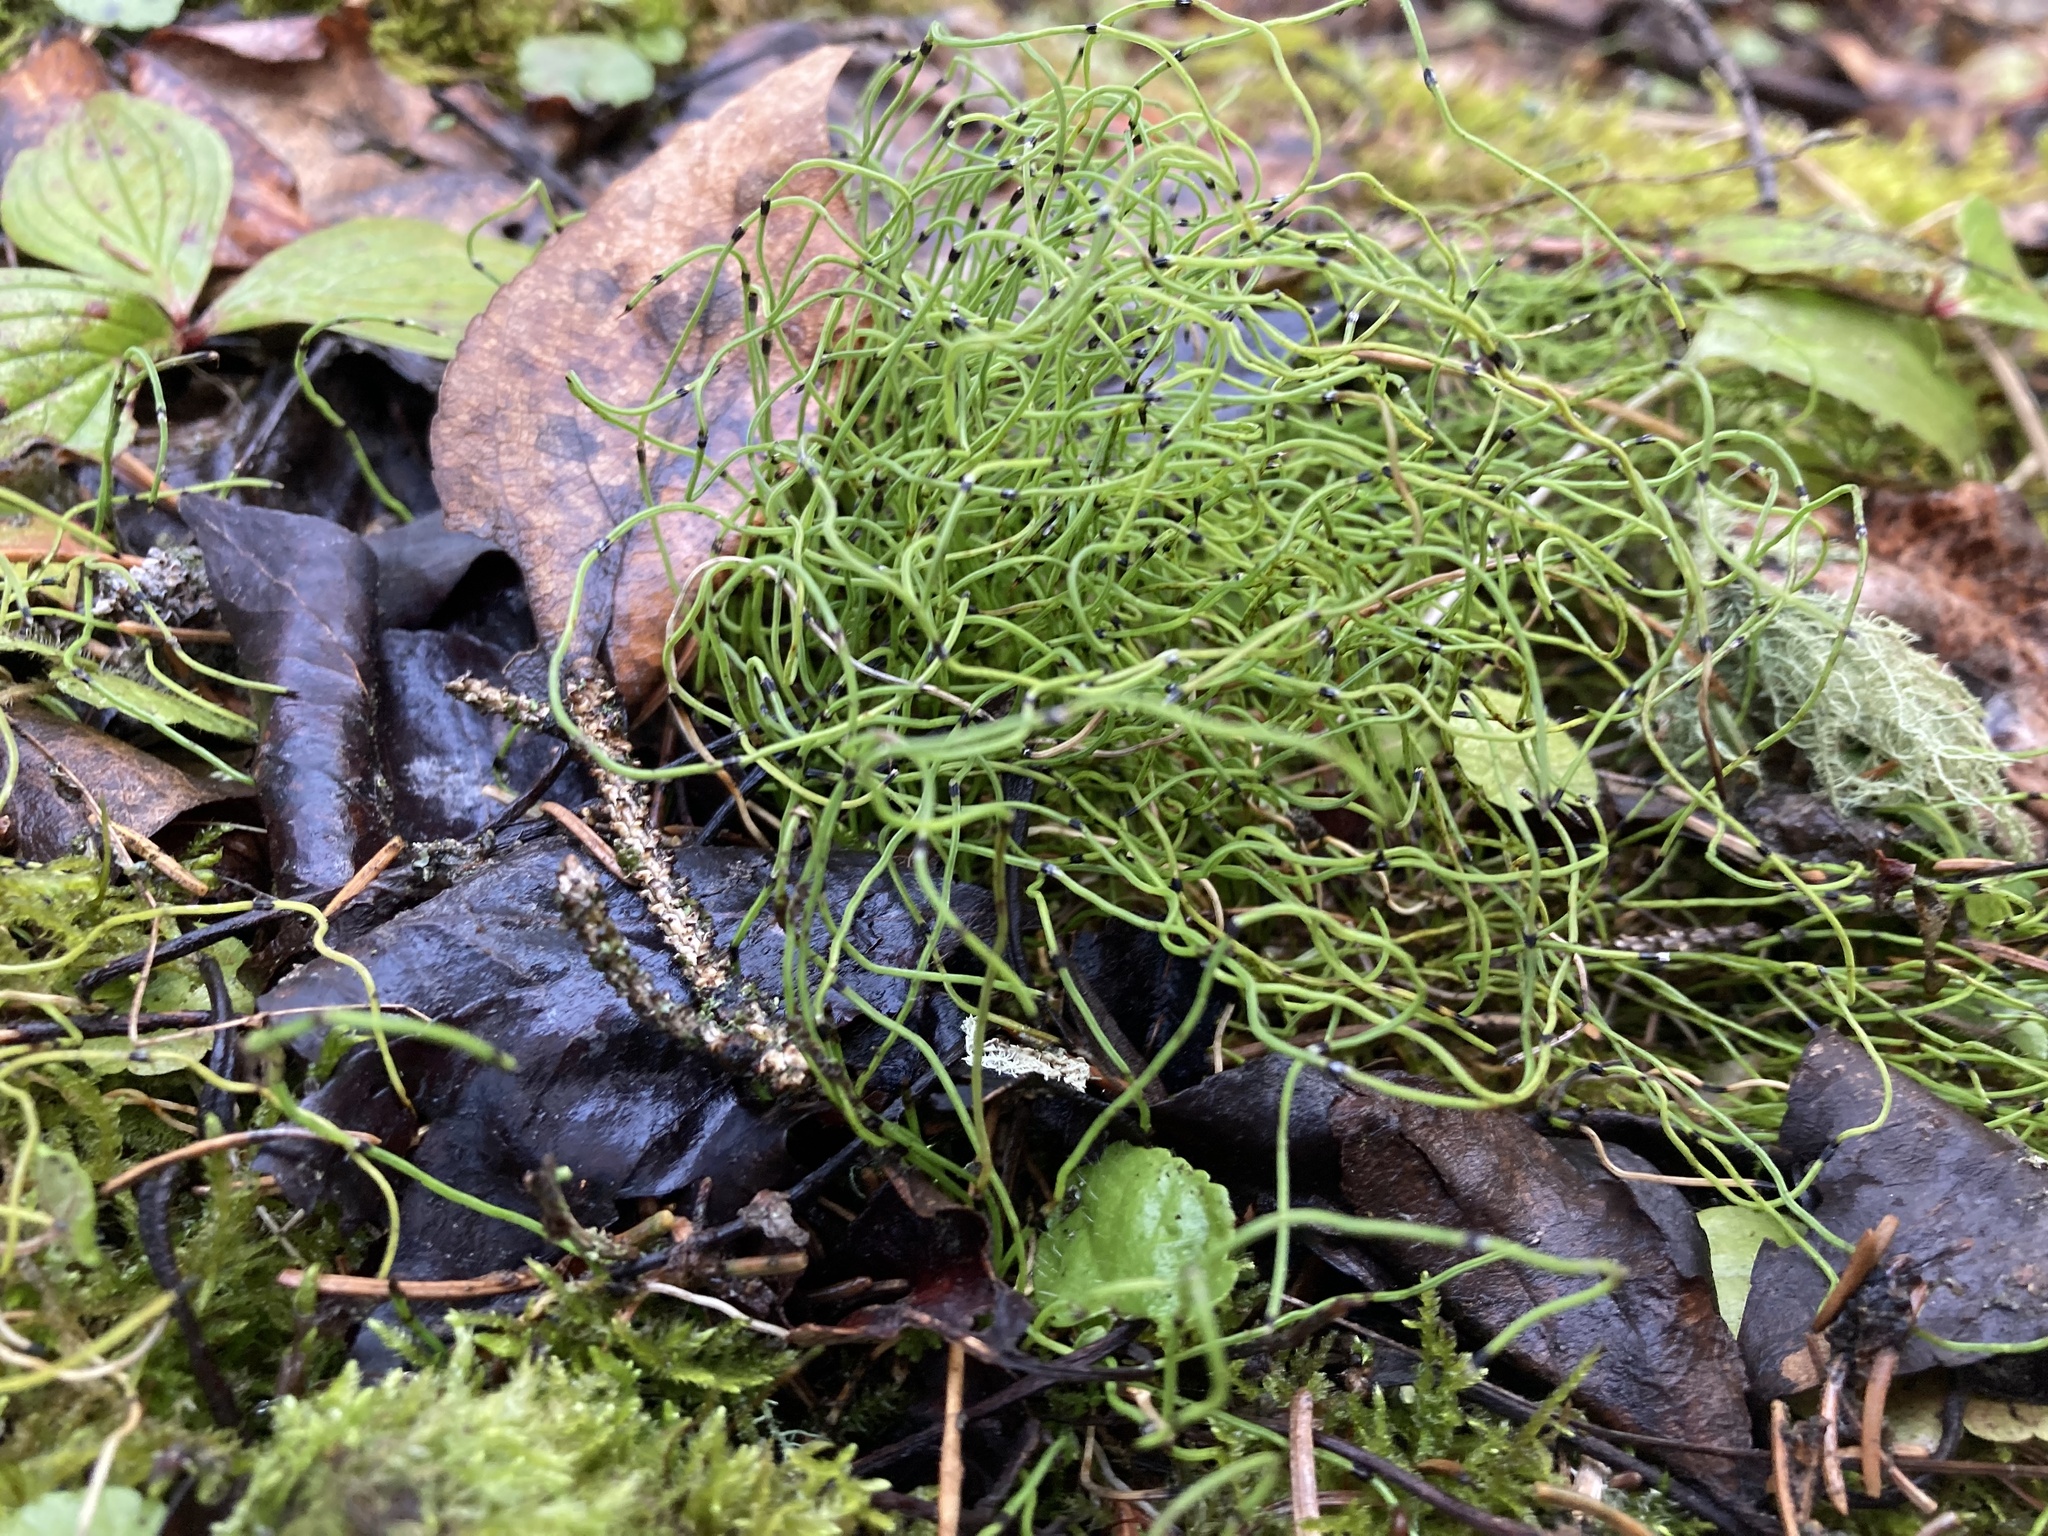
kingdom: Plantae
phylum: Tracheophyta
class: Polypodiopsida
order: Equisetales
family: Equisetaceae
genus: Equisetum
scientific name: Equisetum scirpoides
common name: Delicate horsetail
